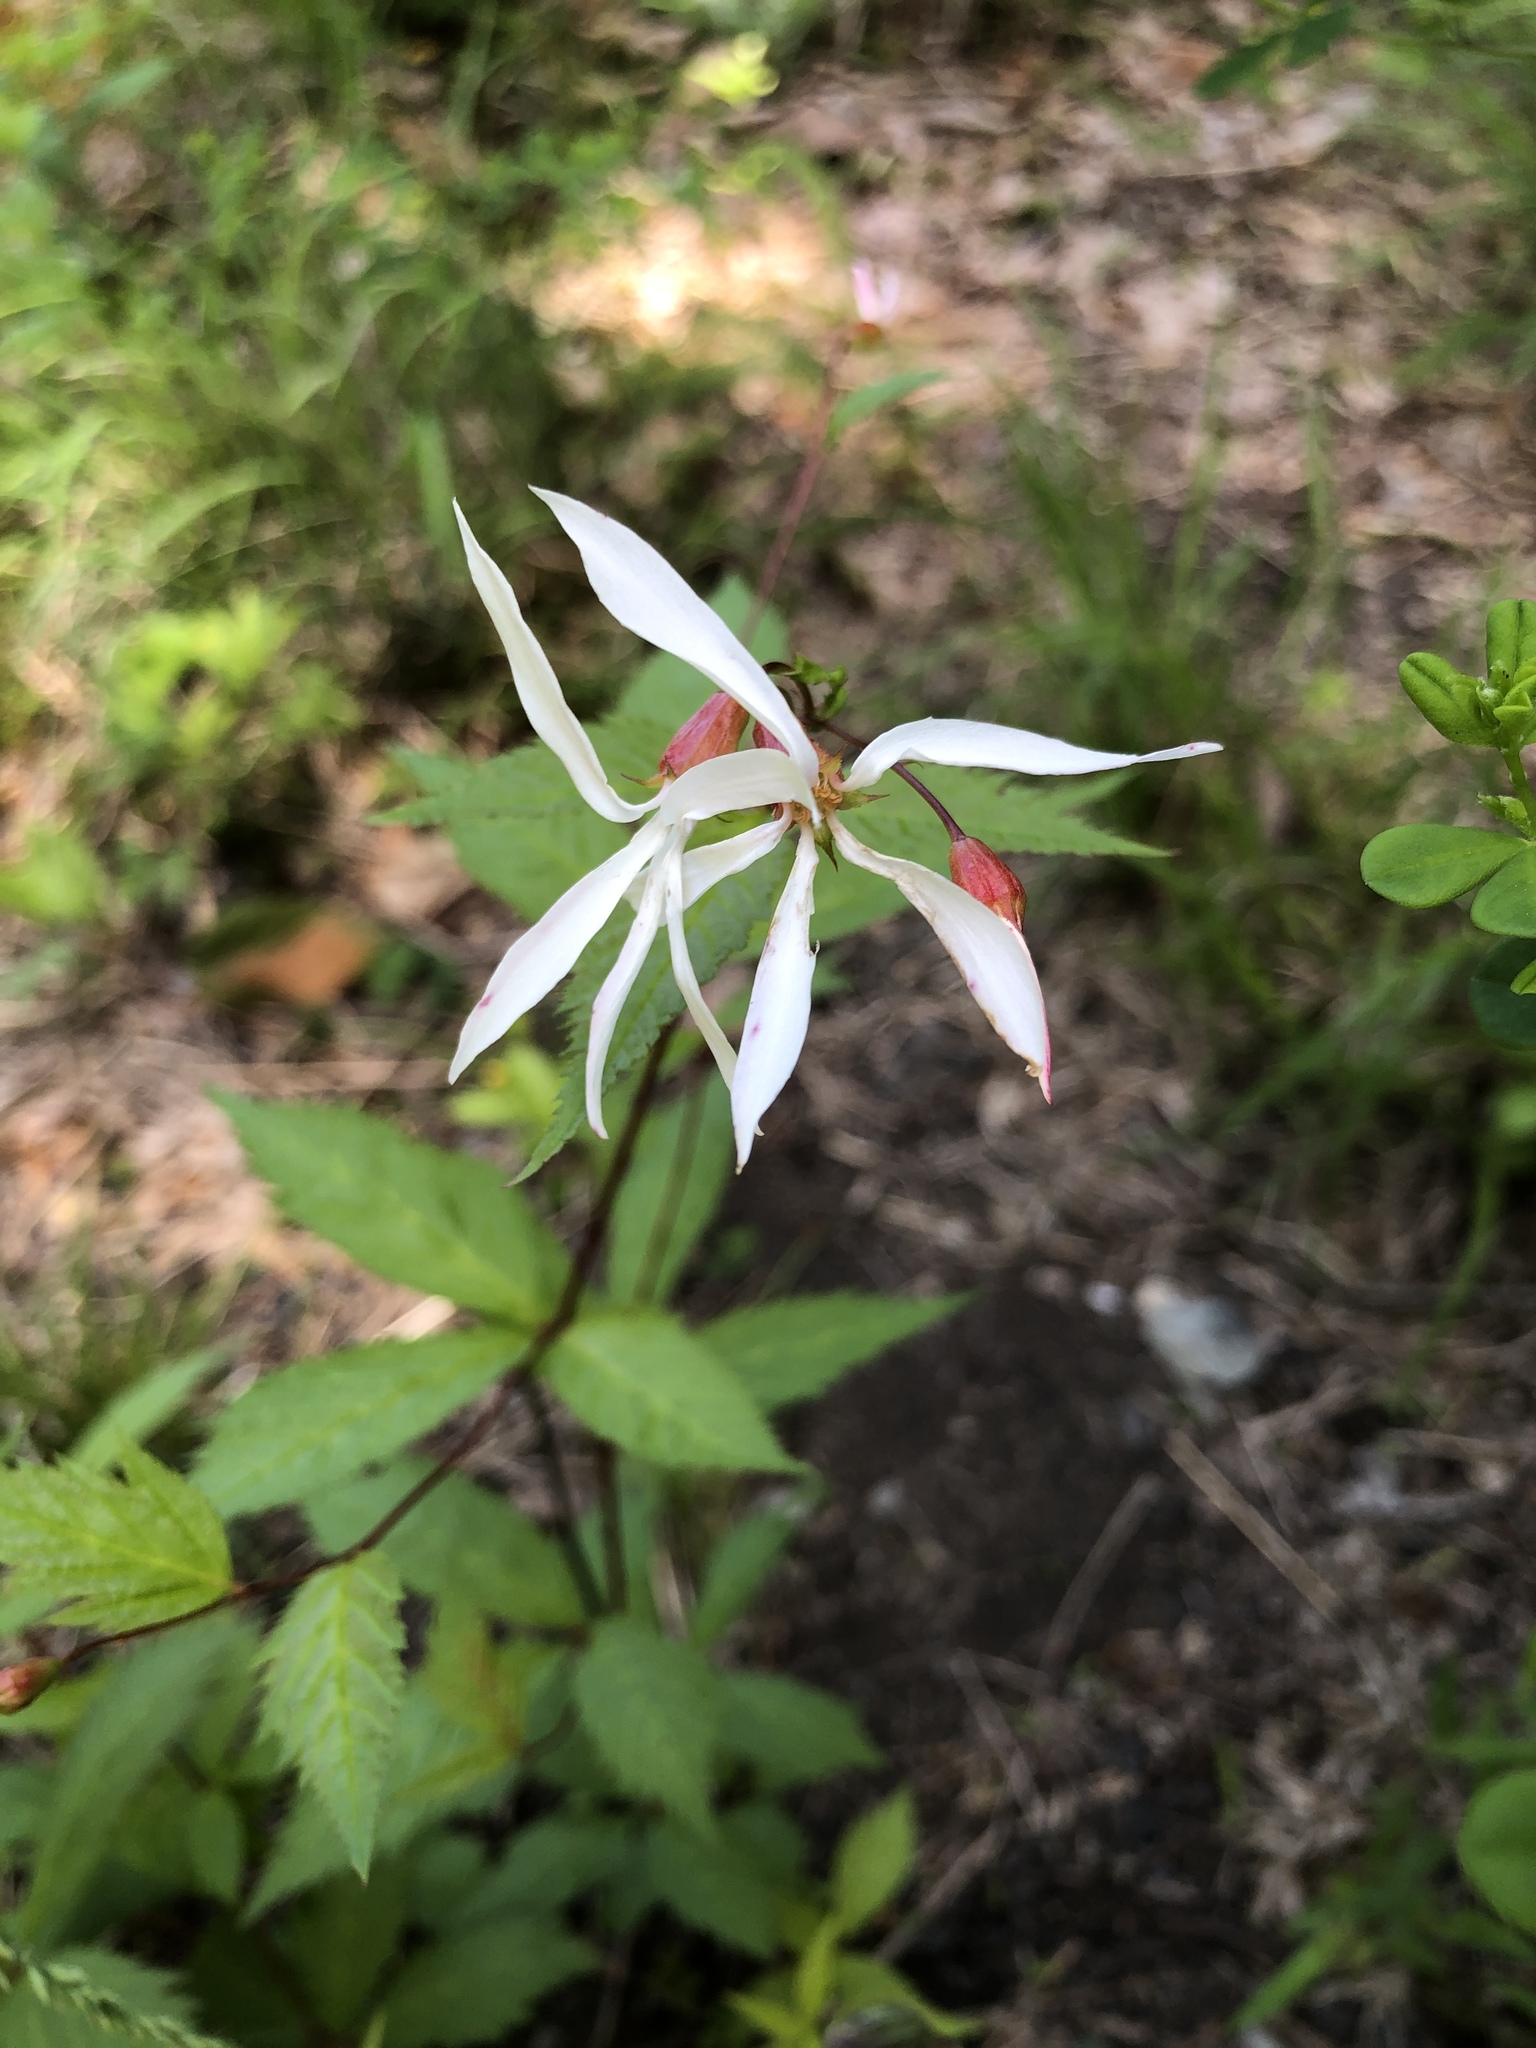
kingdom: Plantae
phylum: Tracheophyta
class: Magnoliopsida
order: Rosales
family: Rosaceae
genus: Gillenia
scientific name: Gillenia trifoliata
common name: Bowman's-root
